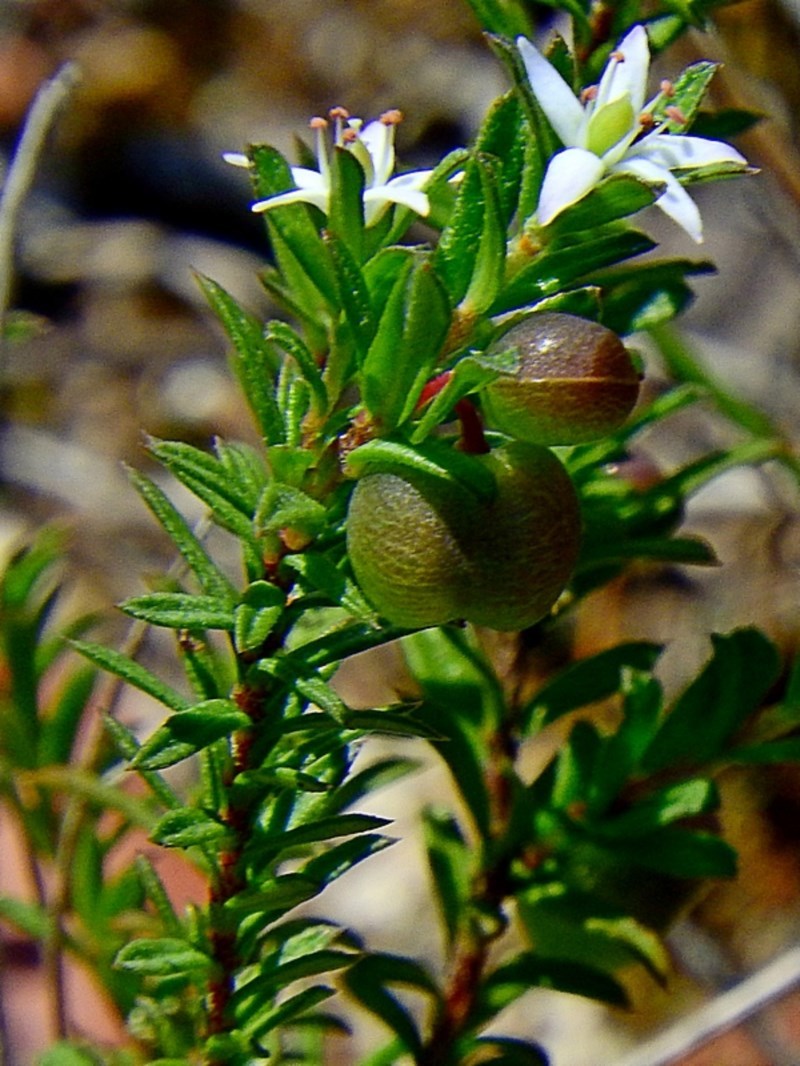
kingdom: Plantae
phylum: Tracheophyta
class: Magnoliopsida
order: Apiales
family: Pittosporaceae
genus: Rhytidosporum
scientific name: Rhytidosporum procumbens
